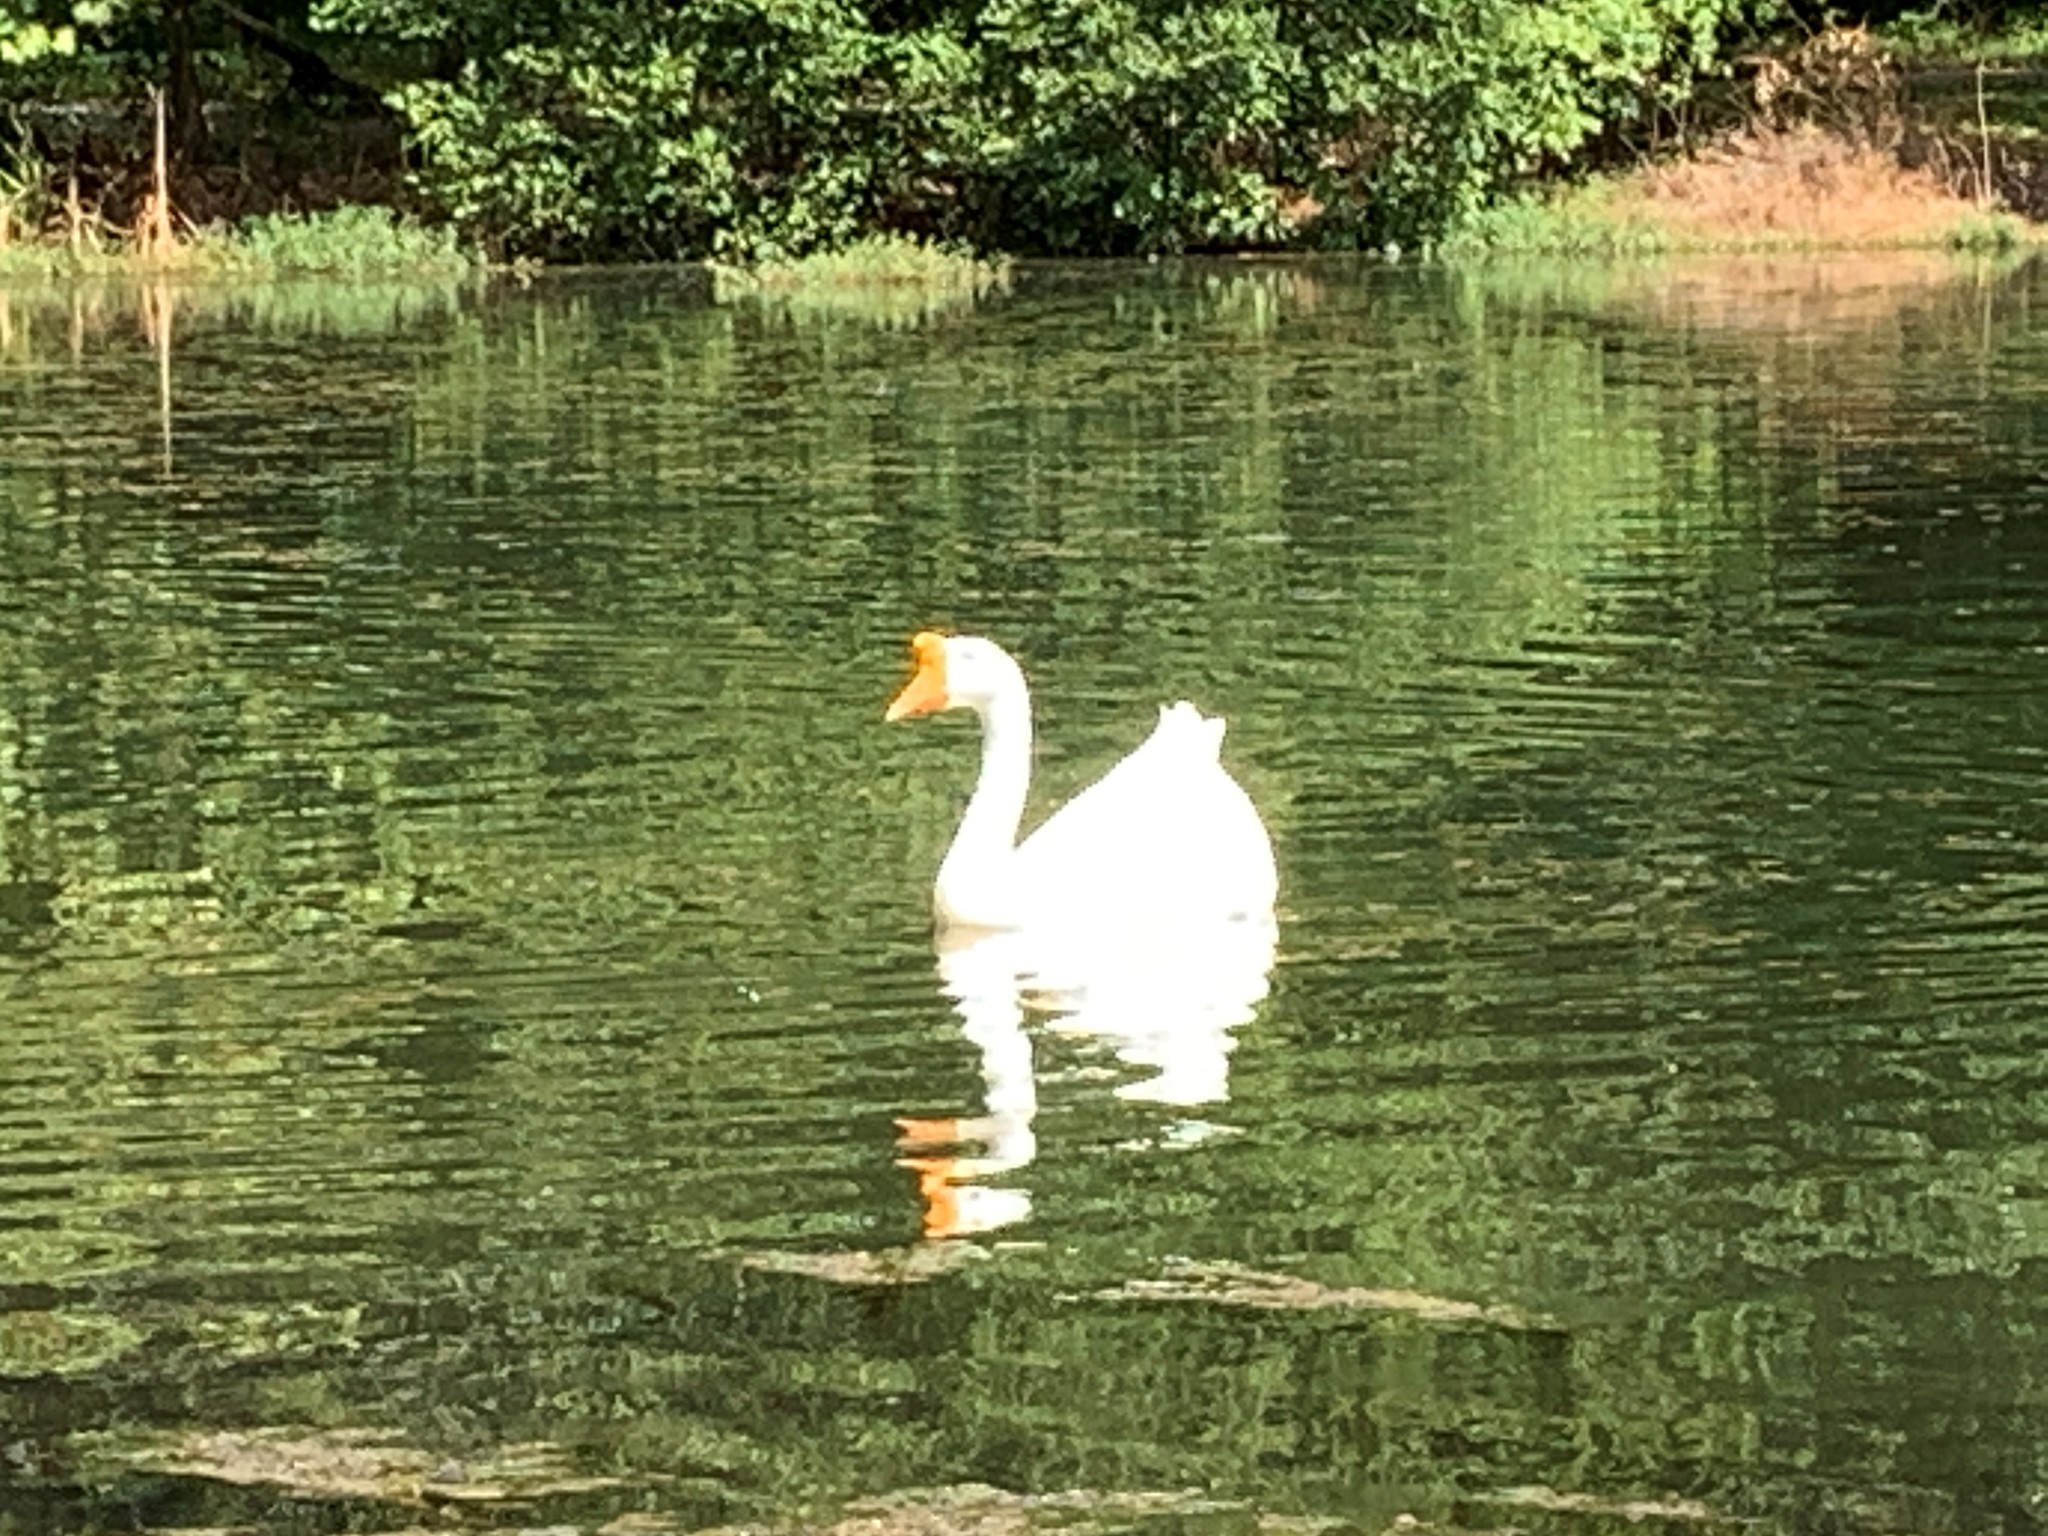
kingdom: Animalia
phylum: Chordata
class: Aves
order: Anseriformes
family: Anatidae
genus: Anser
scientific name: Anser cygnoides
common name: Swan goose
